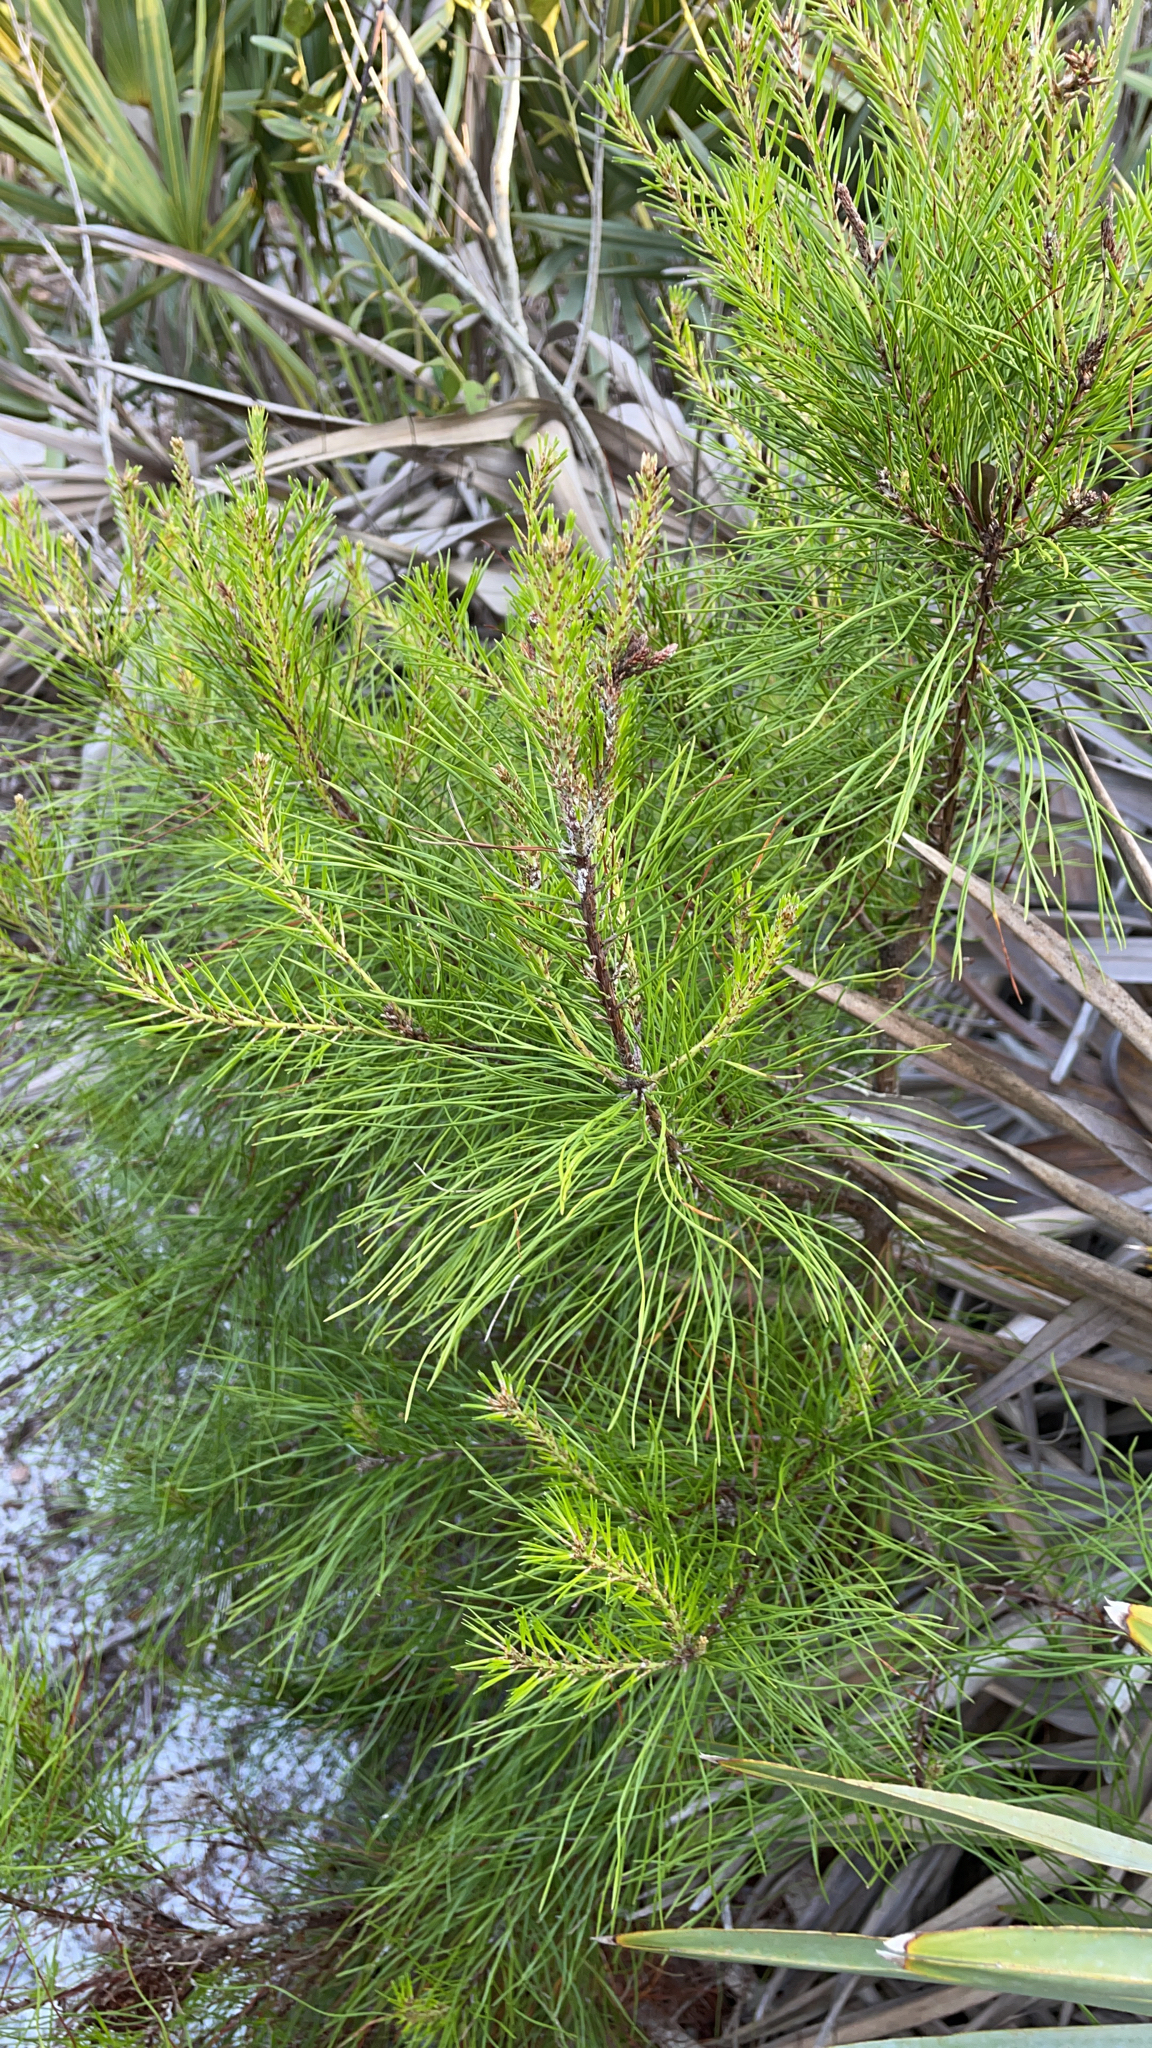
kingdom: Plantae
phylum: Tracheophyta
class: Pinopsida
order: Pinales
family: Pinaceae
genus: Pinus
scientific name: Pinus clausa
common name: Sand pine
